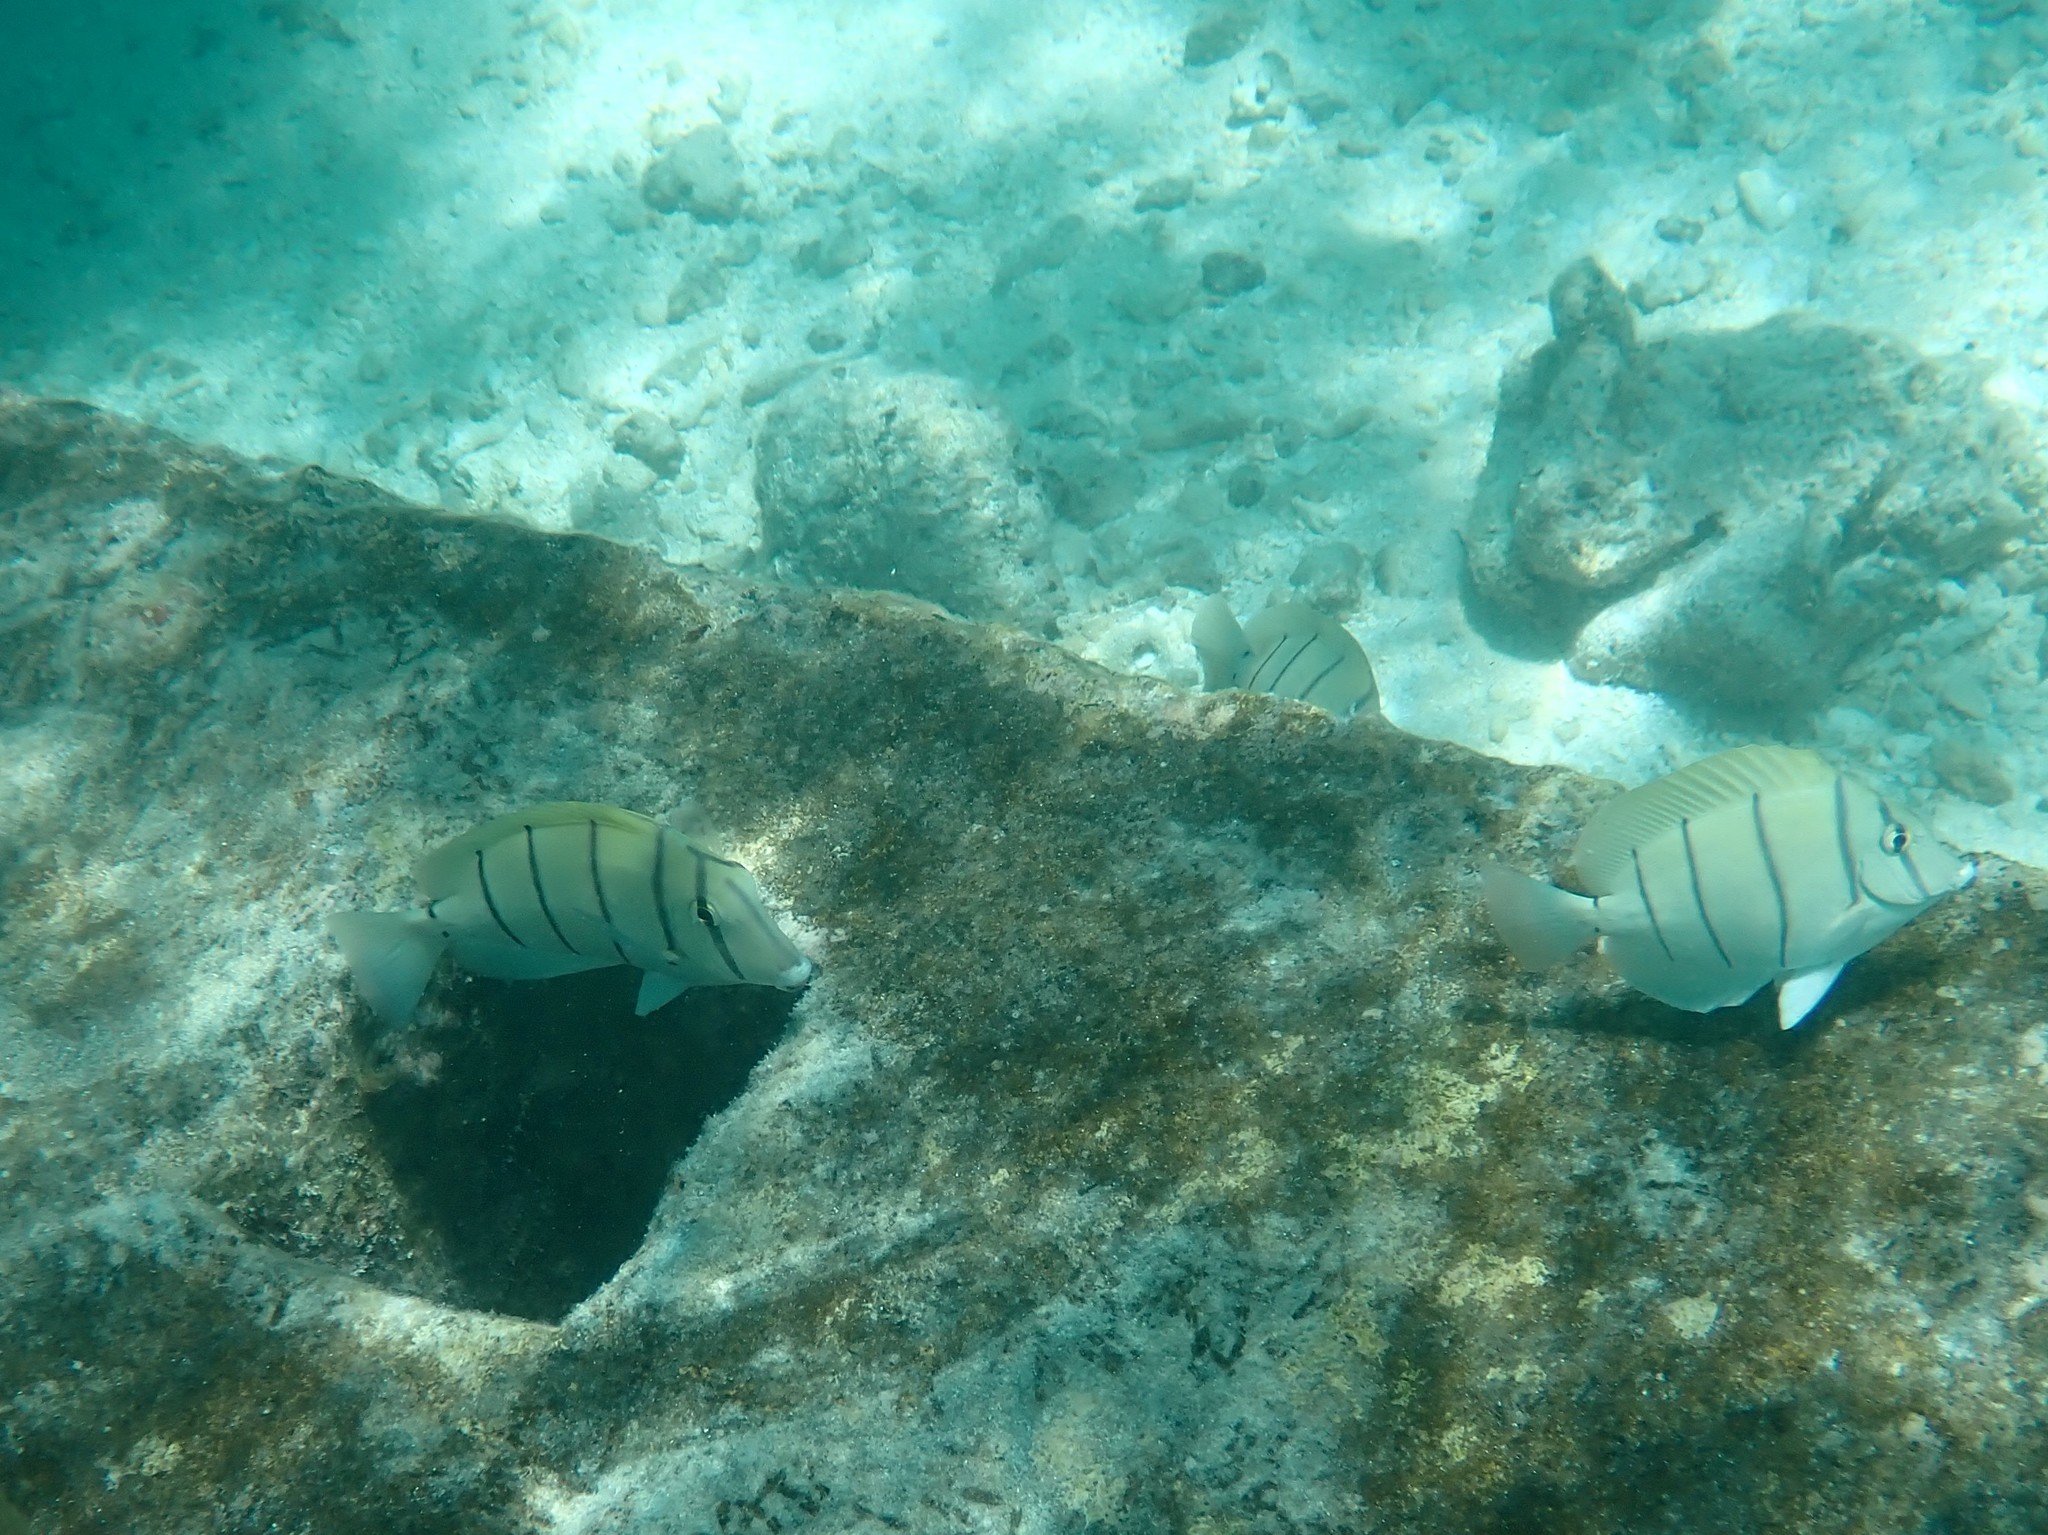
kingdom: Animalia
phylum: Chordata
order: Perciformes
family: Acanthuridae
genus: Acanthurus
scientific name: Acanthurus triostegus
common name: Convict surgeonfish
